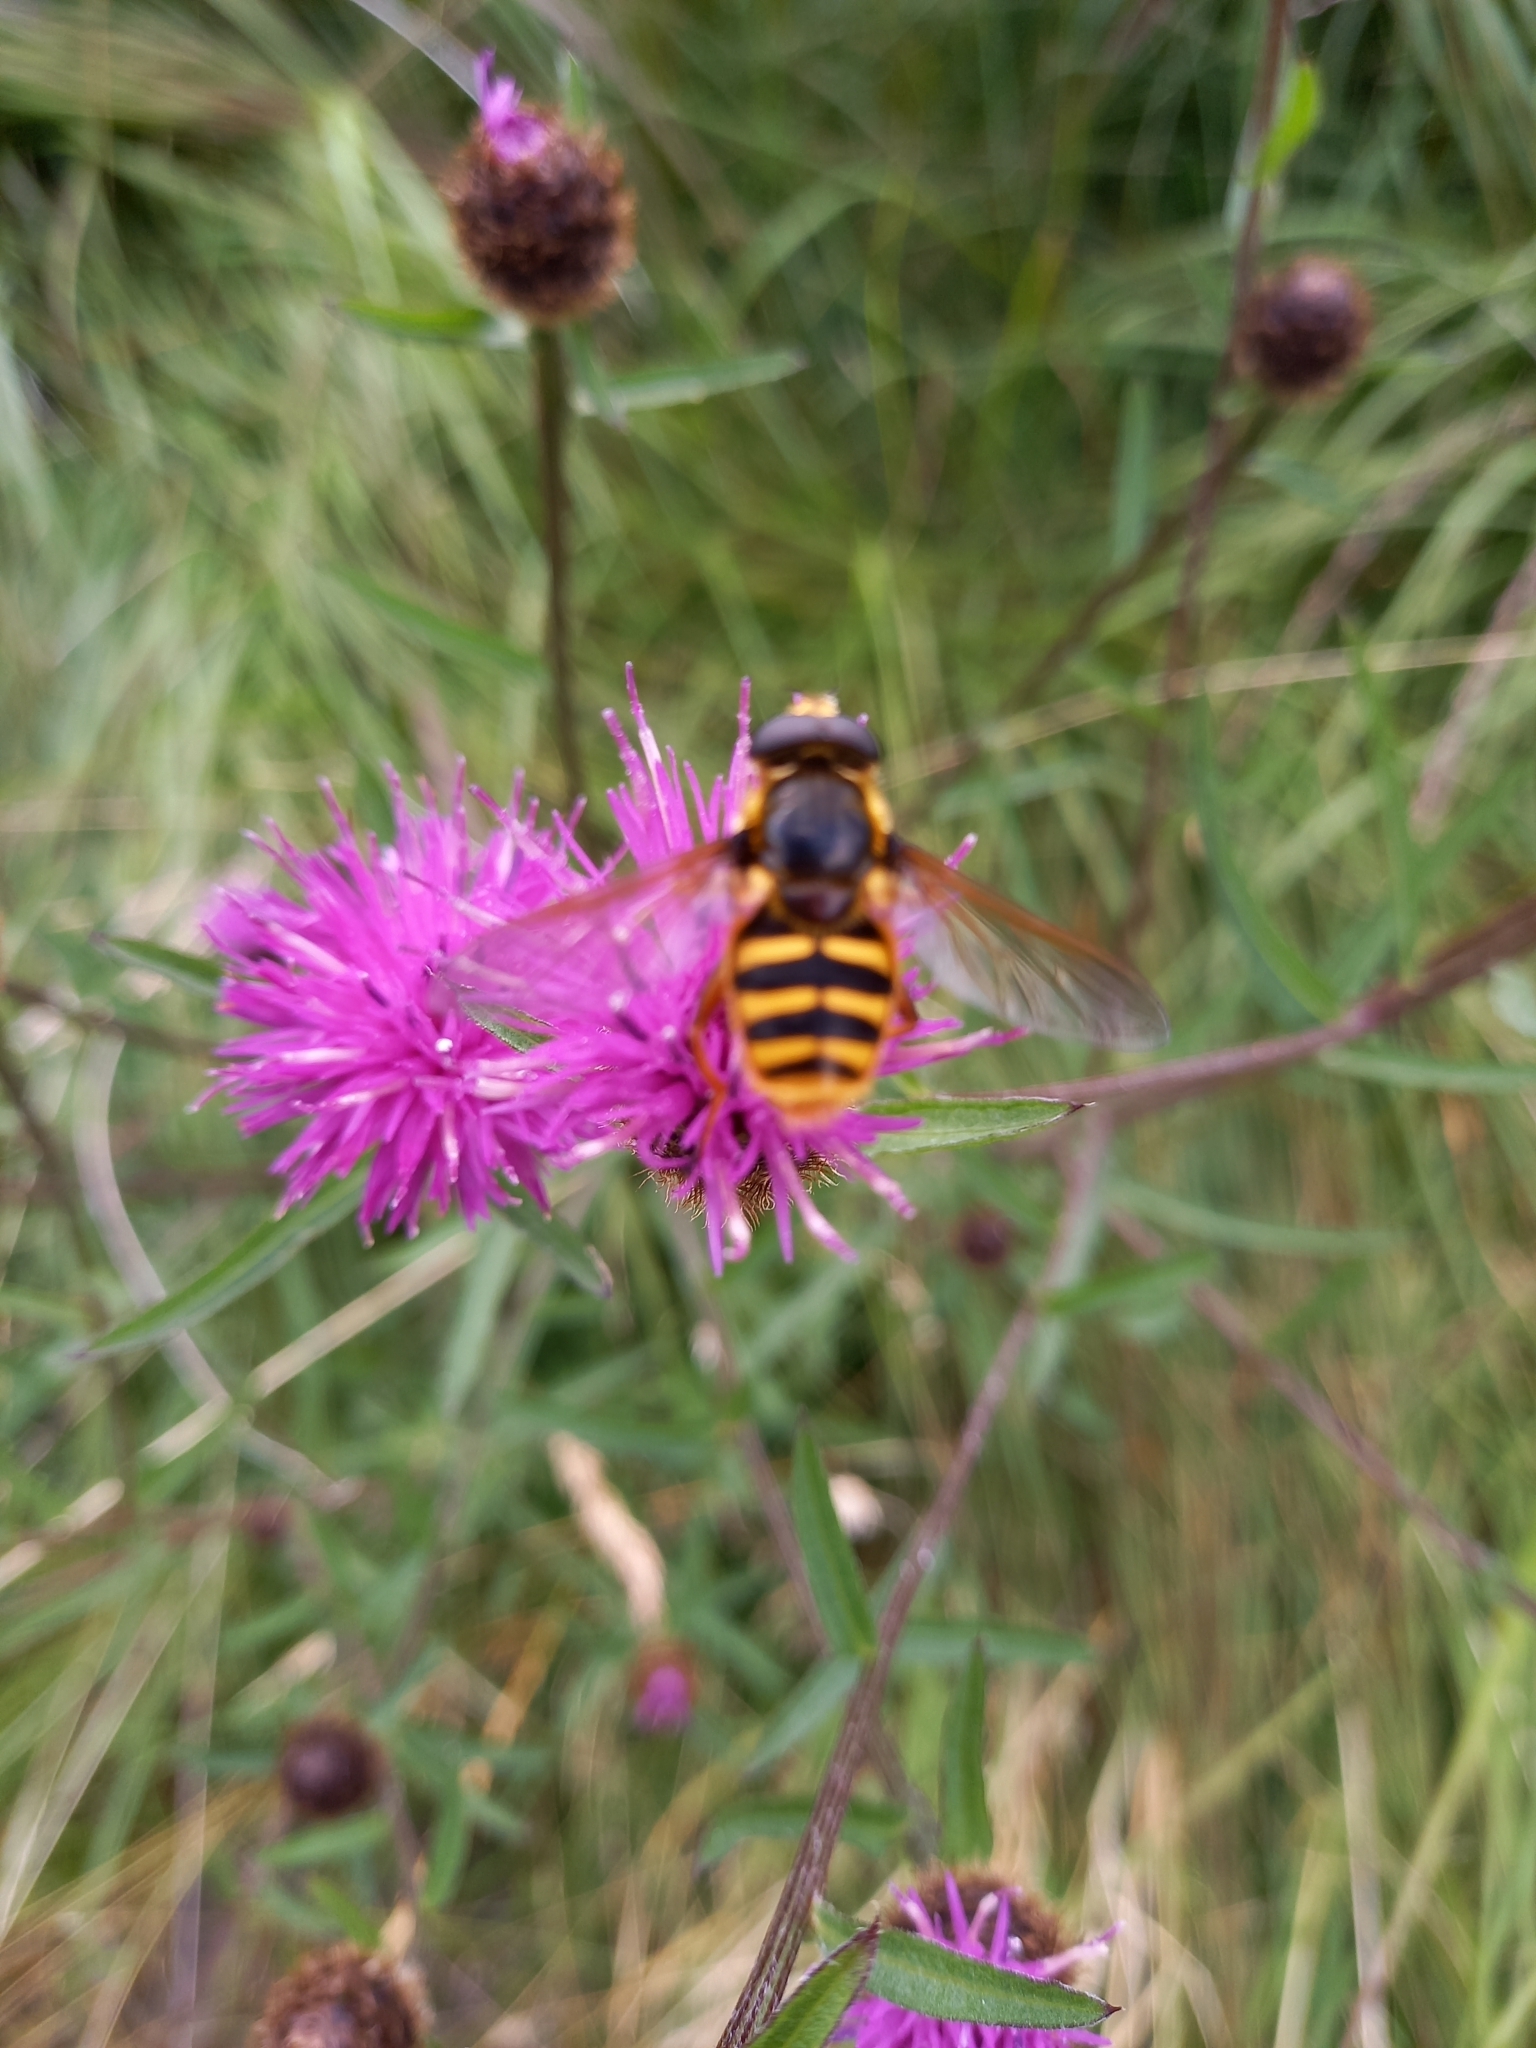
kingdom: Animalia
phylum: Arthropoda
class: Insecta
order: Diptera
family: Syrphidae
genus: Sericomyia
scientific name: Sericomyia silentis
